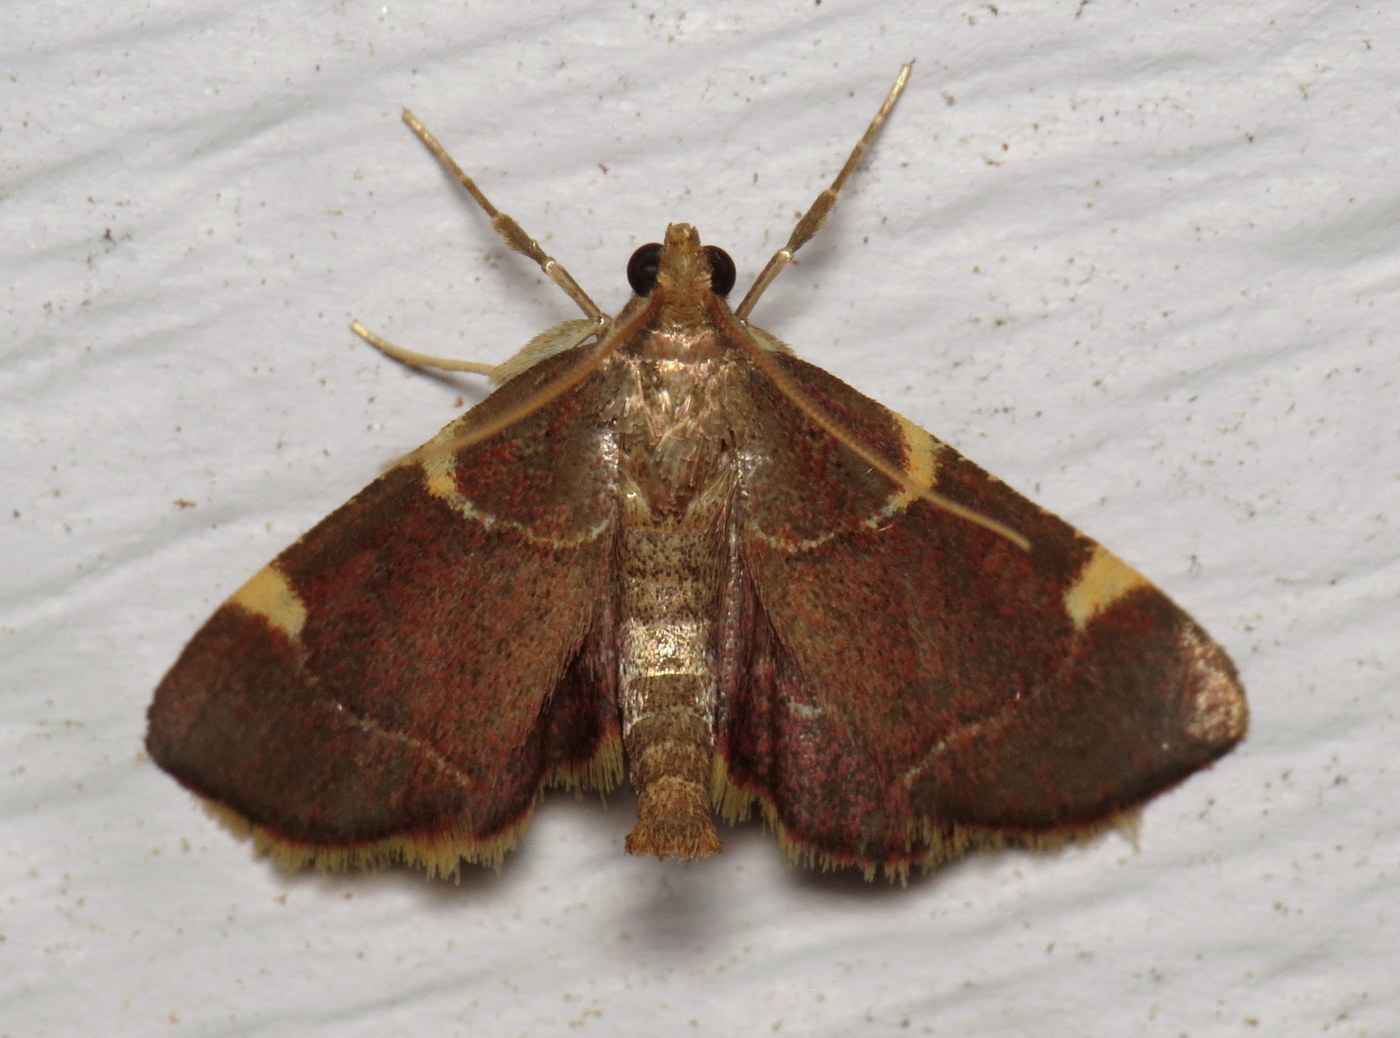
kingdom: Animalia
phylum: Arthropoda
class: Insecta
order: Lepidoptera
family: Pyralidae
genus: Hypsopygia
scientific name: Hypsopygia olinalis
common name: Yellow-fringed dolichomia moth
